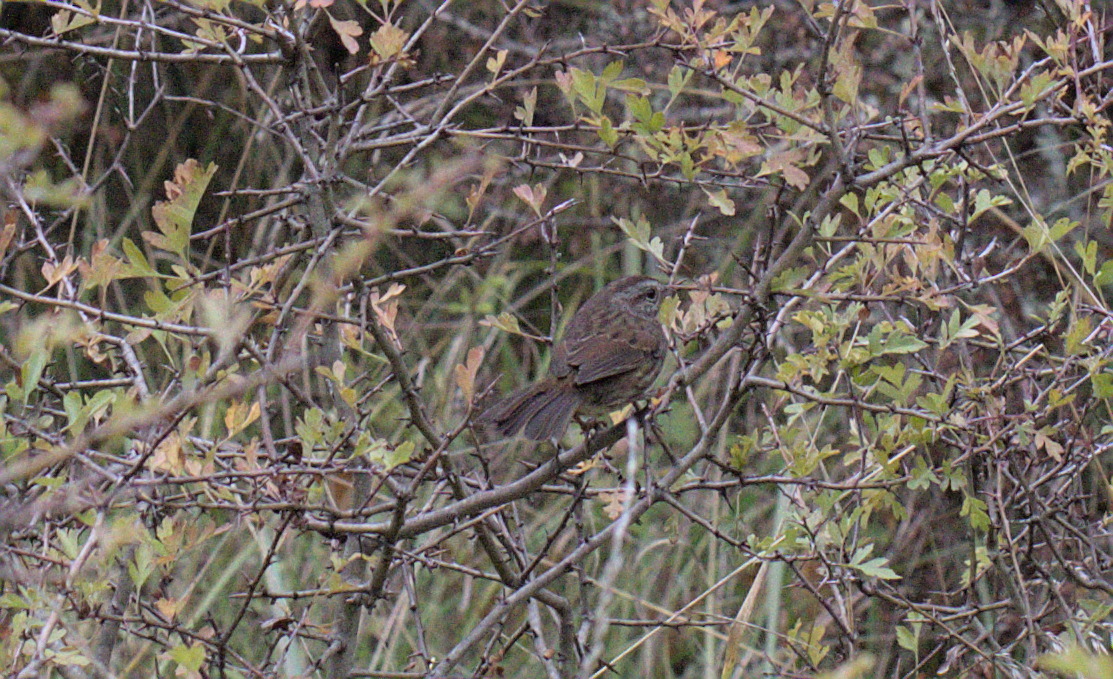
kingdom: Animalia
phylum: Chordata
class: Aves
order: Passeriformes
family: Passerellidae
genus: Melospiza
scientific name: Melospiza melodia
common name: Song sparrow
